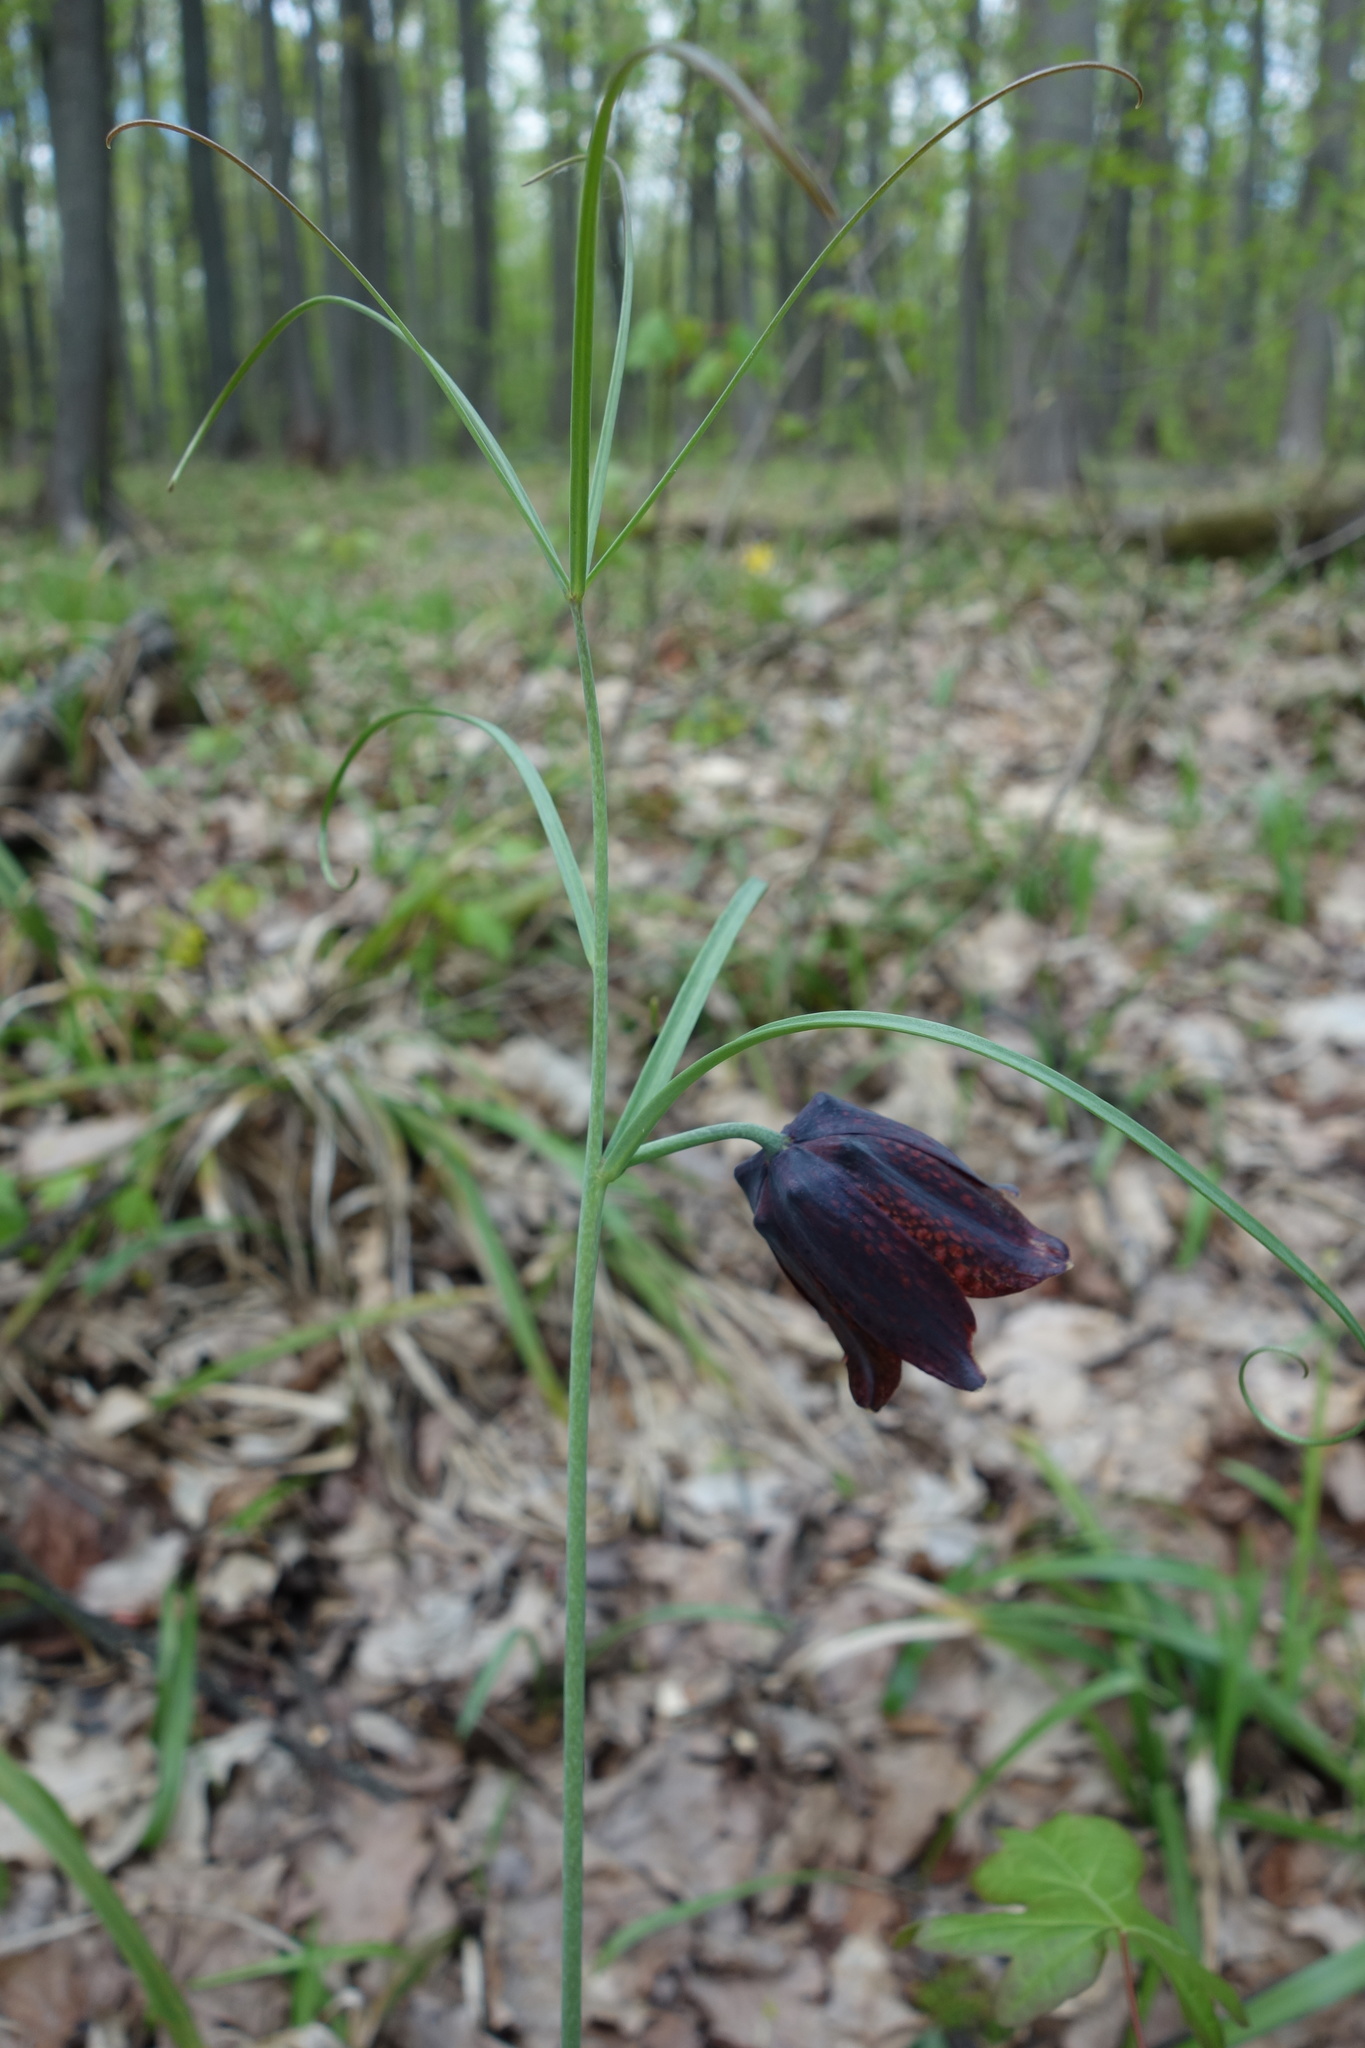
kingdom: Plantae
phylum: Tracheophyta
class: Liliopsida
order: Liliales
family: Liliaceae
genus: Fritillaria
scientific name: Fritillaria ruthenica
